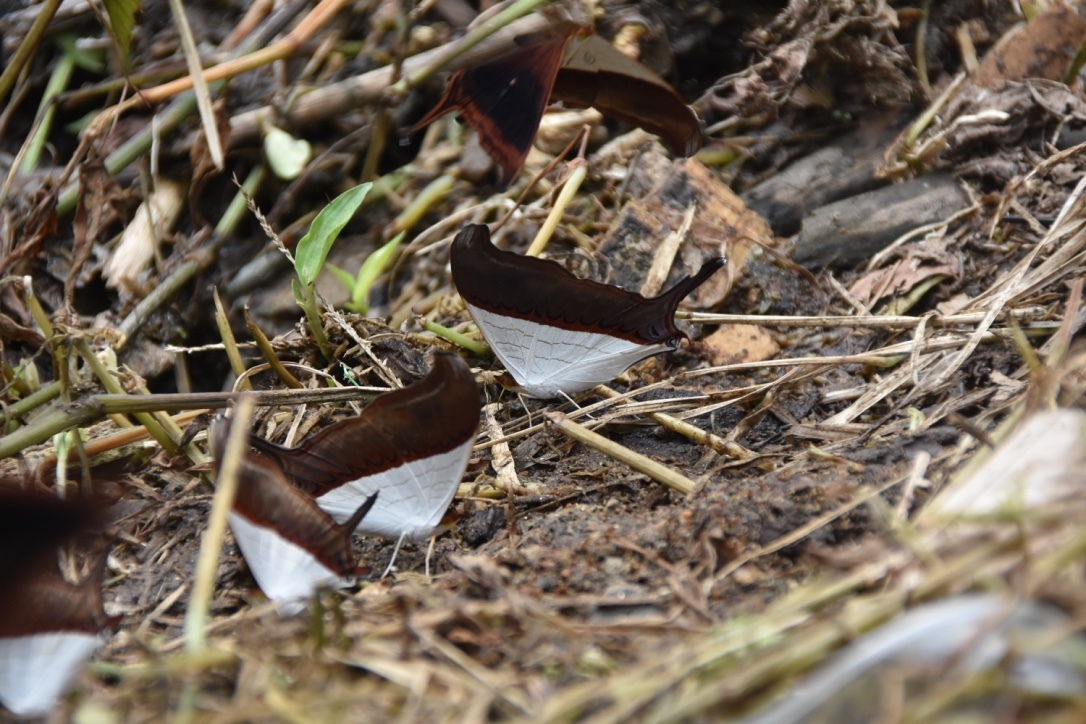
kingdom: Animalia
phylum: Arthropoda
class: Insecta
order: Lepidoptera
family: Nymphalidae
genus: Marpesia
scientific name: Marpesia zerynthia
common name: Waiter daggerwing
